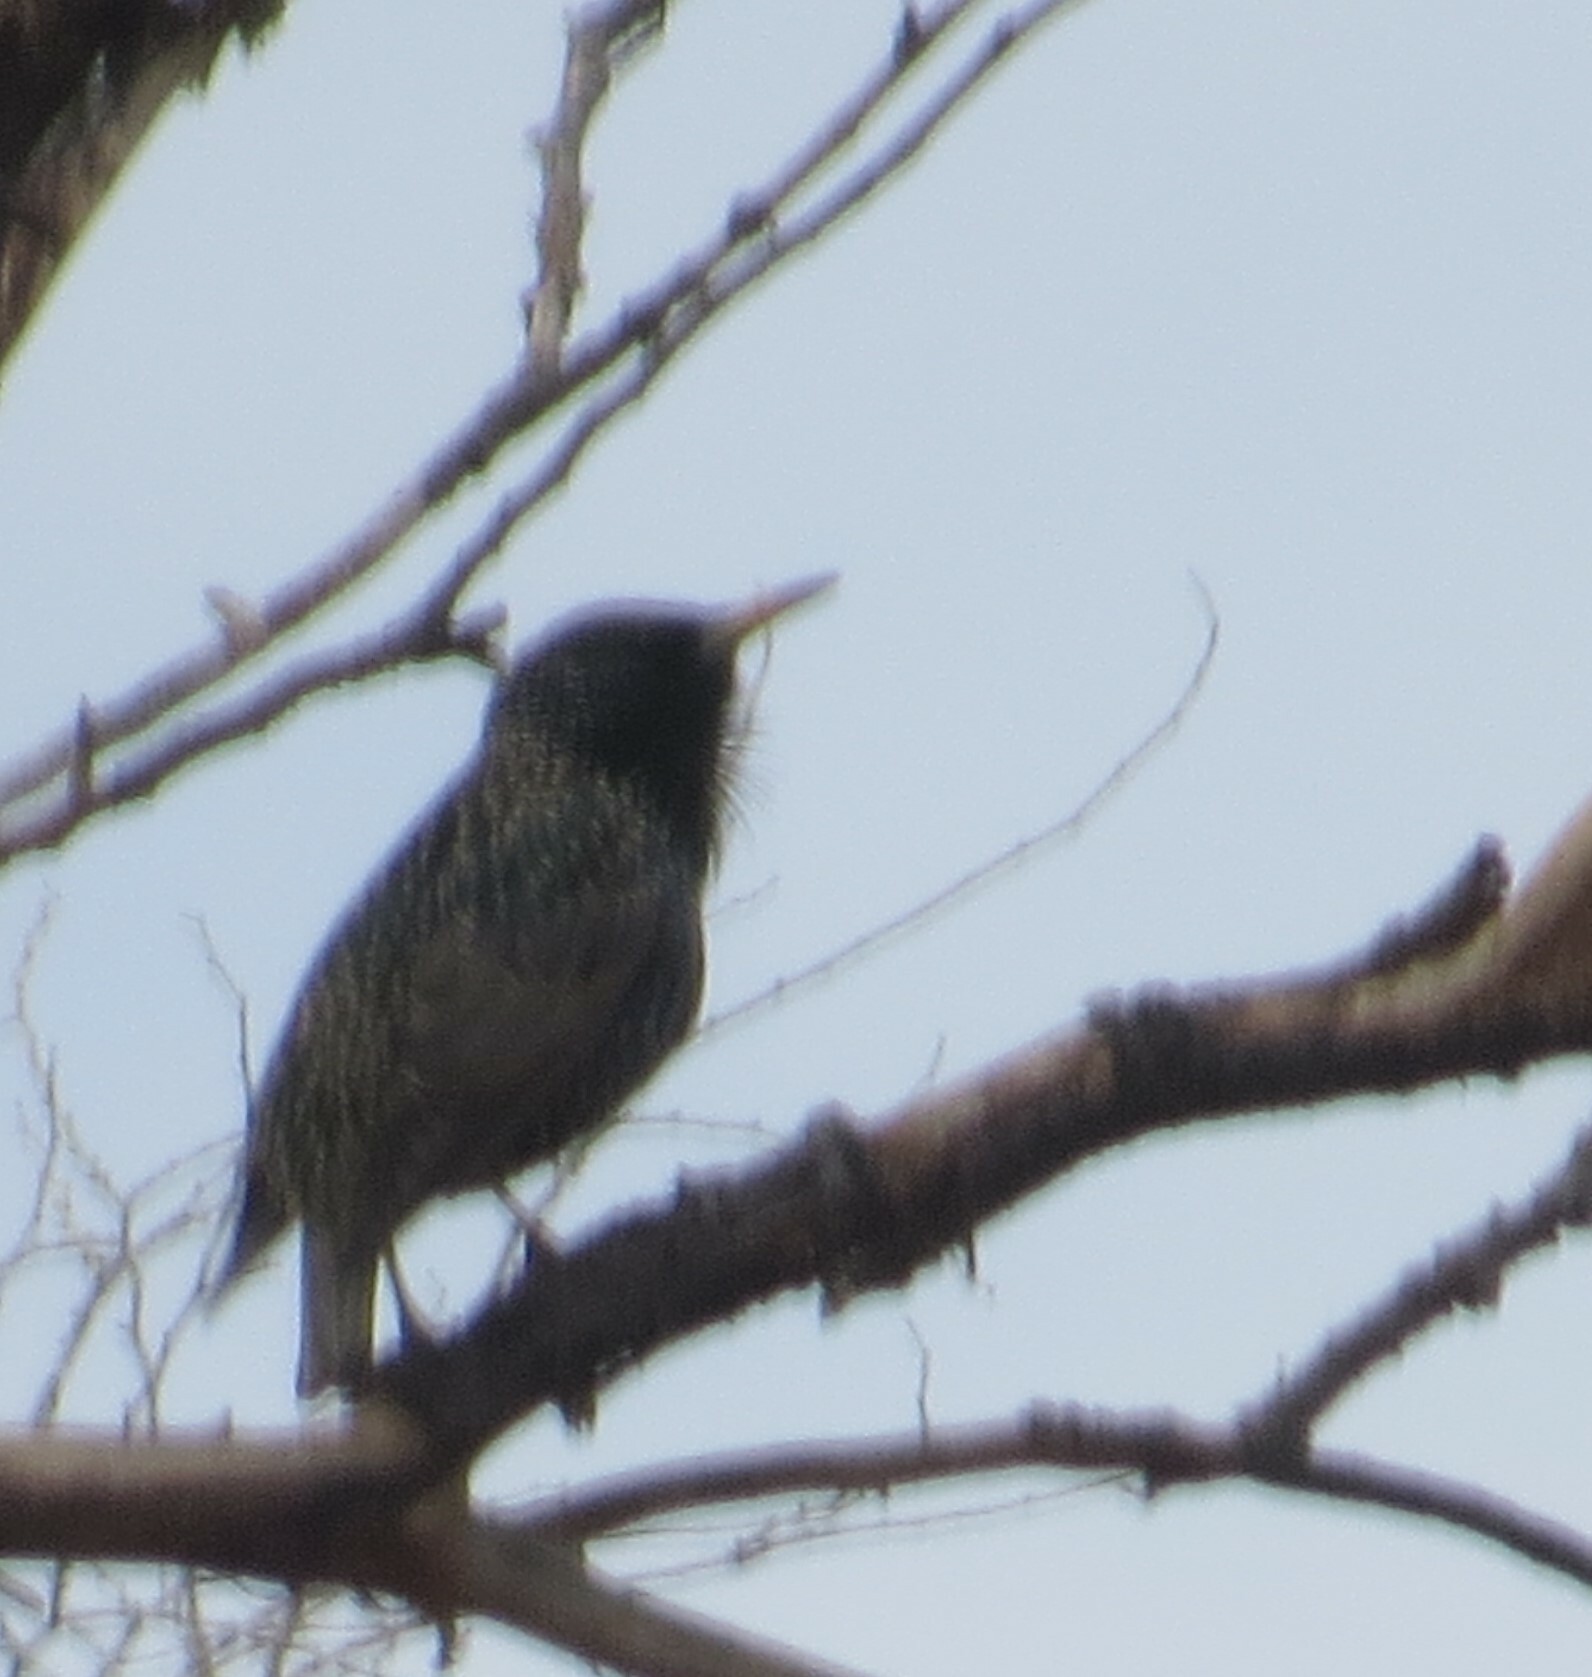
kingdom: Animalia
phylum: Chordata
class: Aves
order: Passeriformes
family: Sturnidae
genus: Sturnus
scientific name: Sturnus vulgaris
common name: Common starling
